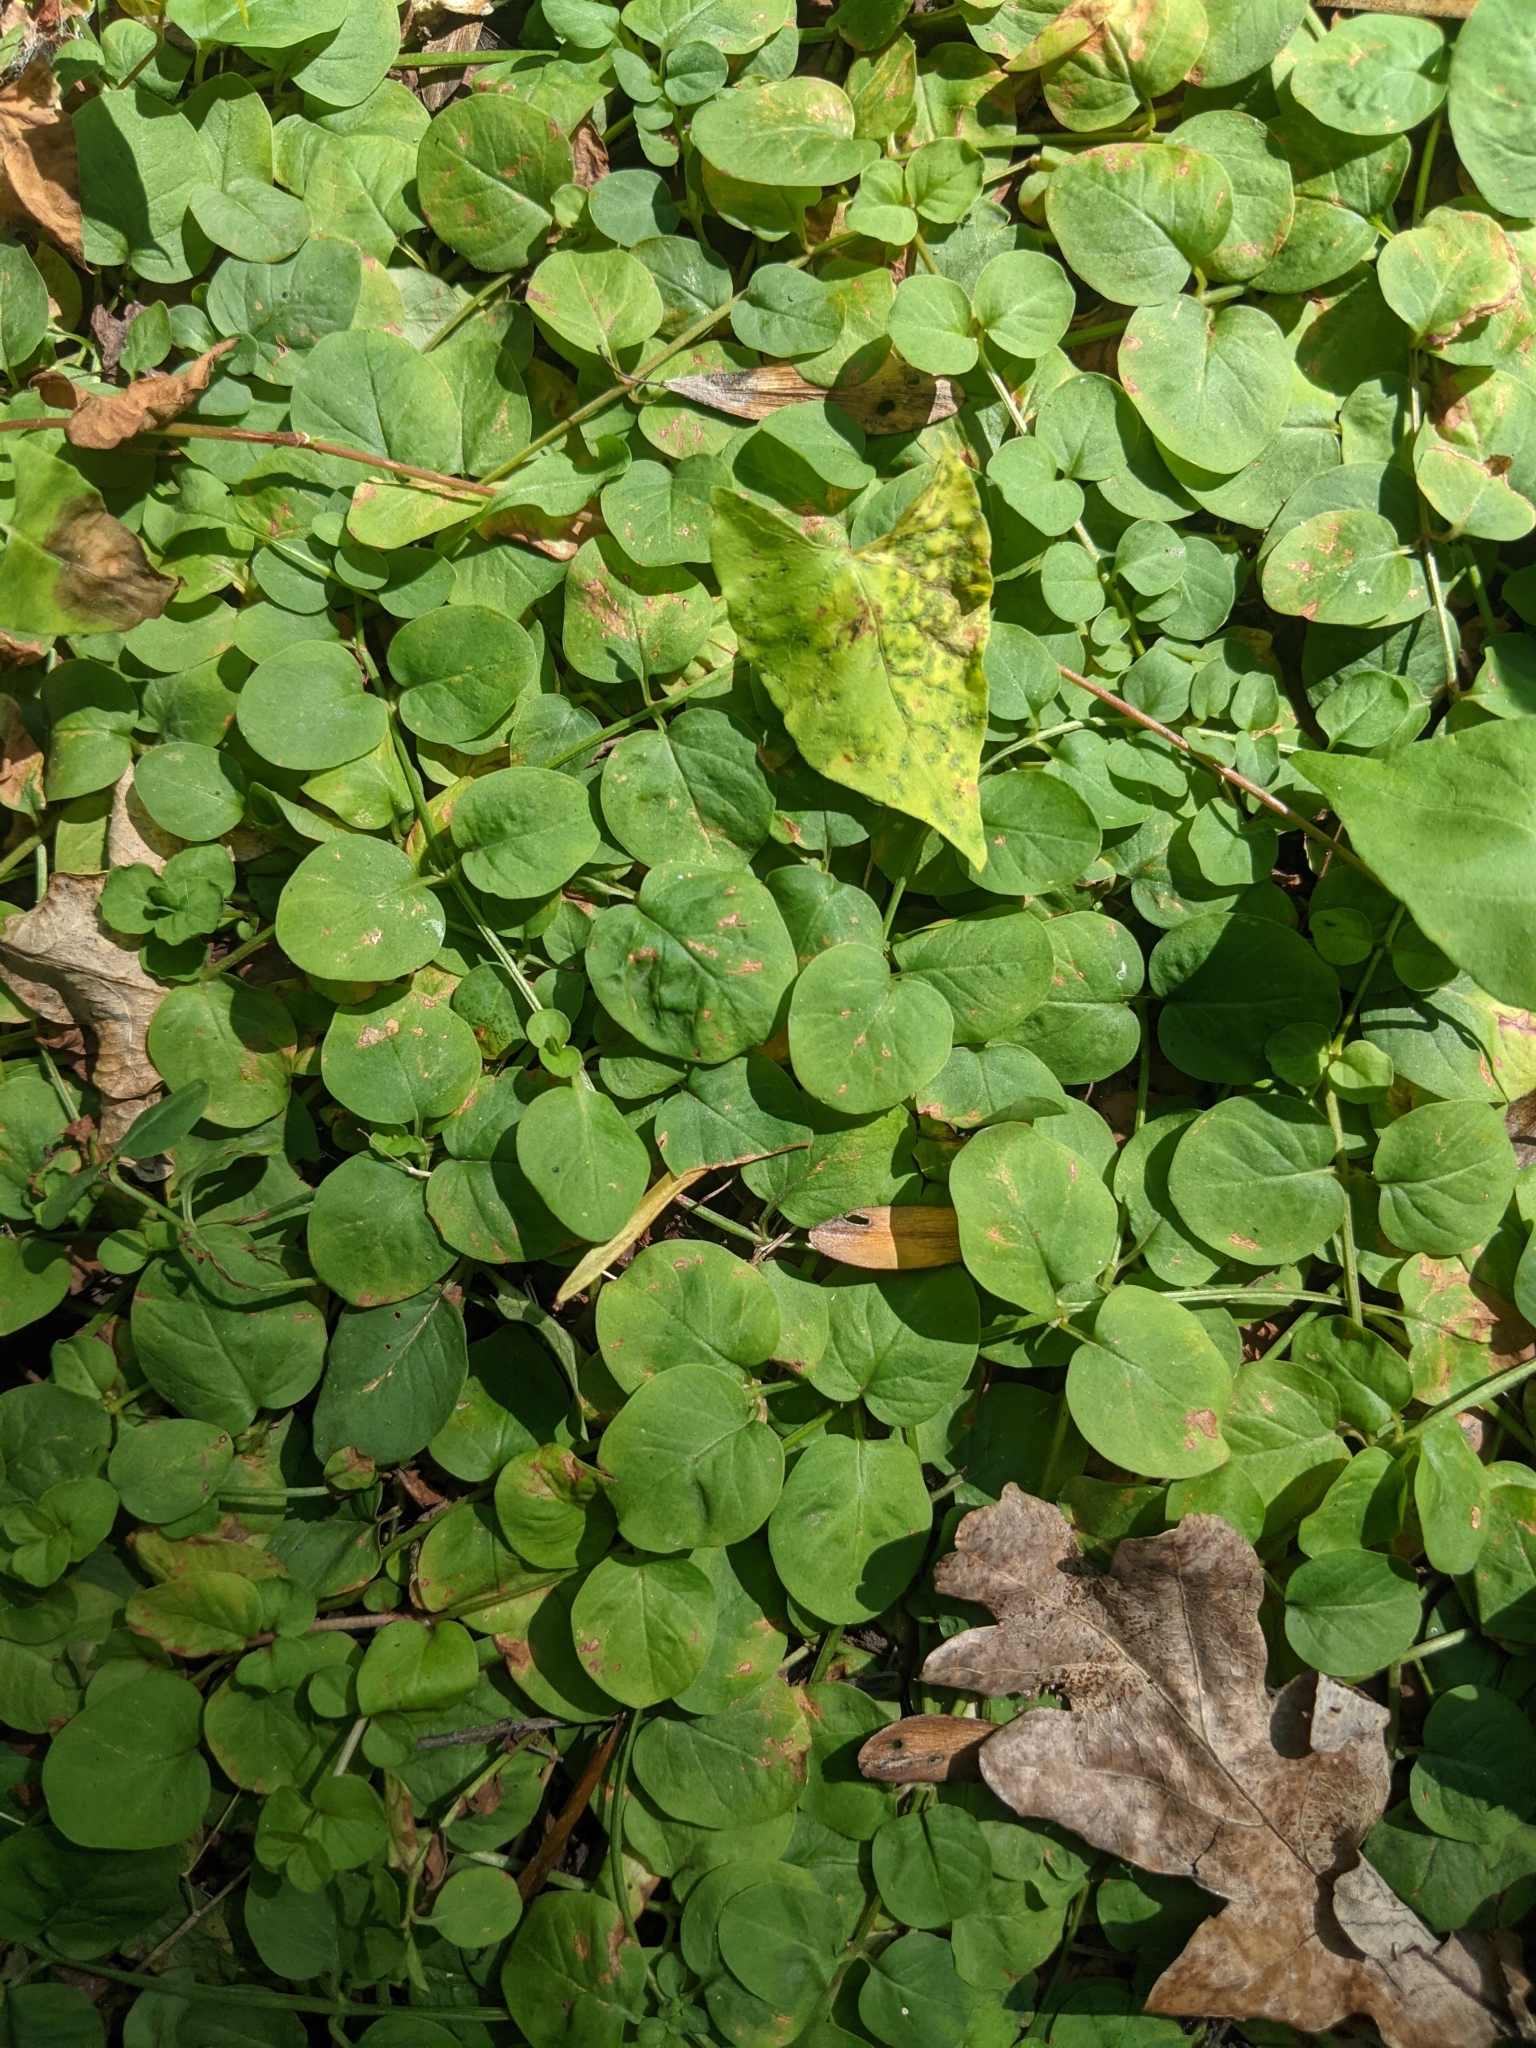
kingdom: Plantae
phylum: Tracheophyta
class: Magnoliopsida
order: Ericales
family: Primulaceae
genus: Lysimachia
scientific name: Lysimachia nummularia
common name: Moneywort
